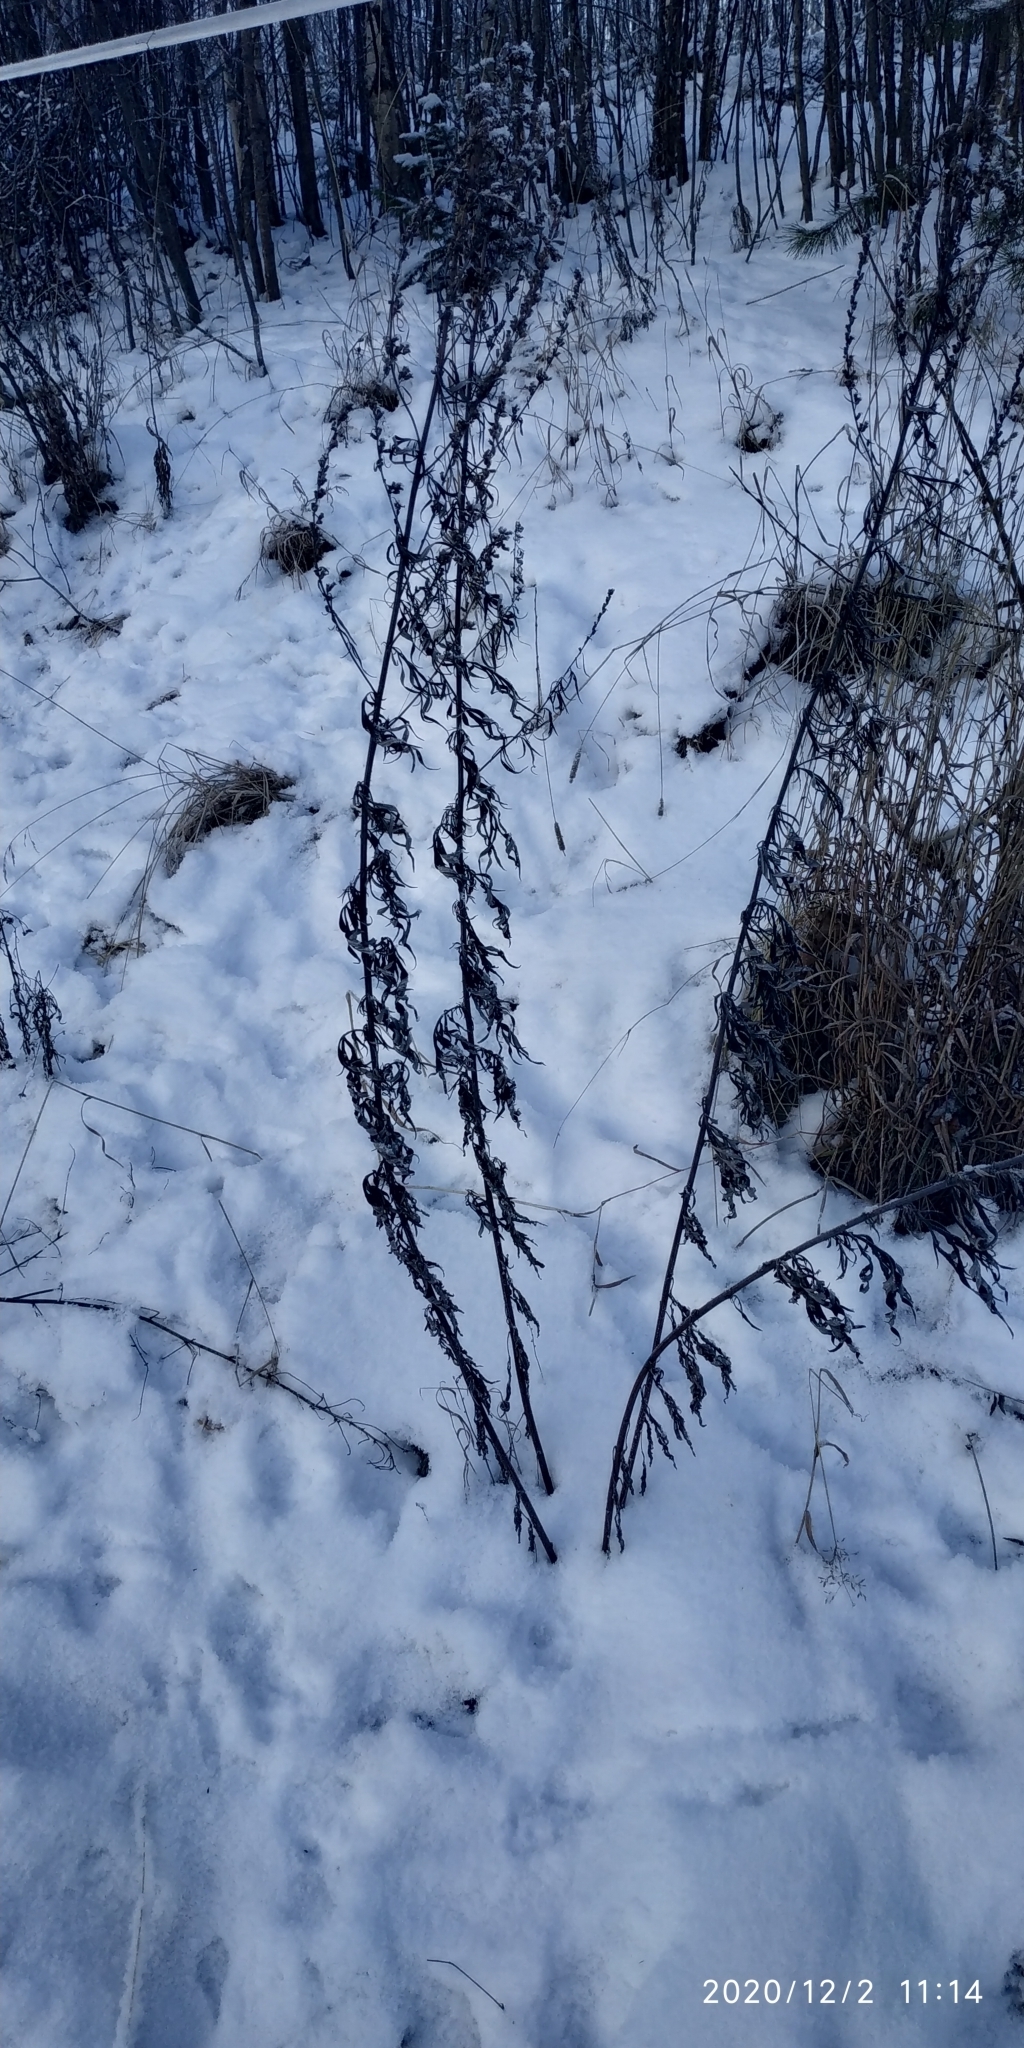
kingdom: Plantae
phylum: Tracheophyta
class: Magnoliopsida
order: Asterales
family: Asteraceae
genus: Artemisia
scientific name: Artemisia vulgaris
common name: Mugwort
